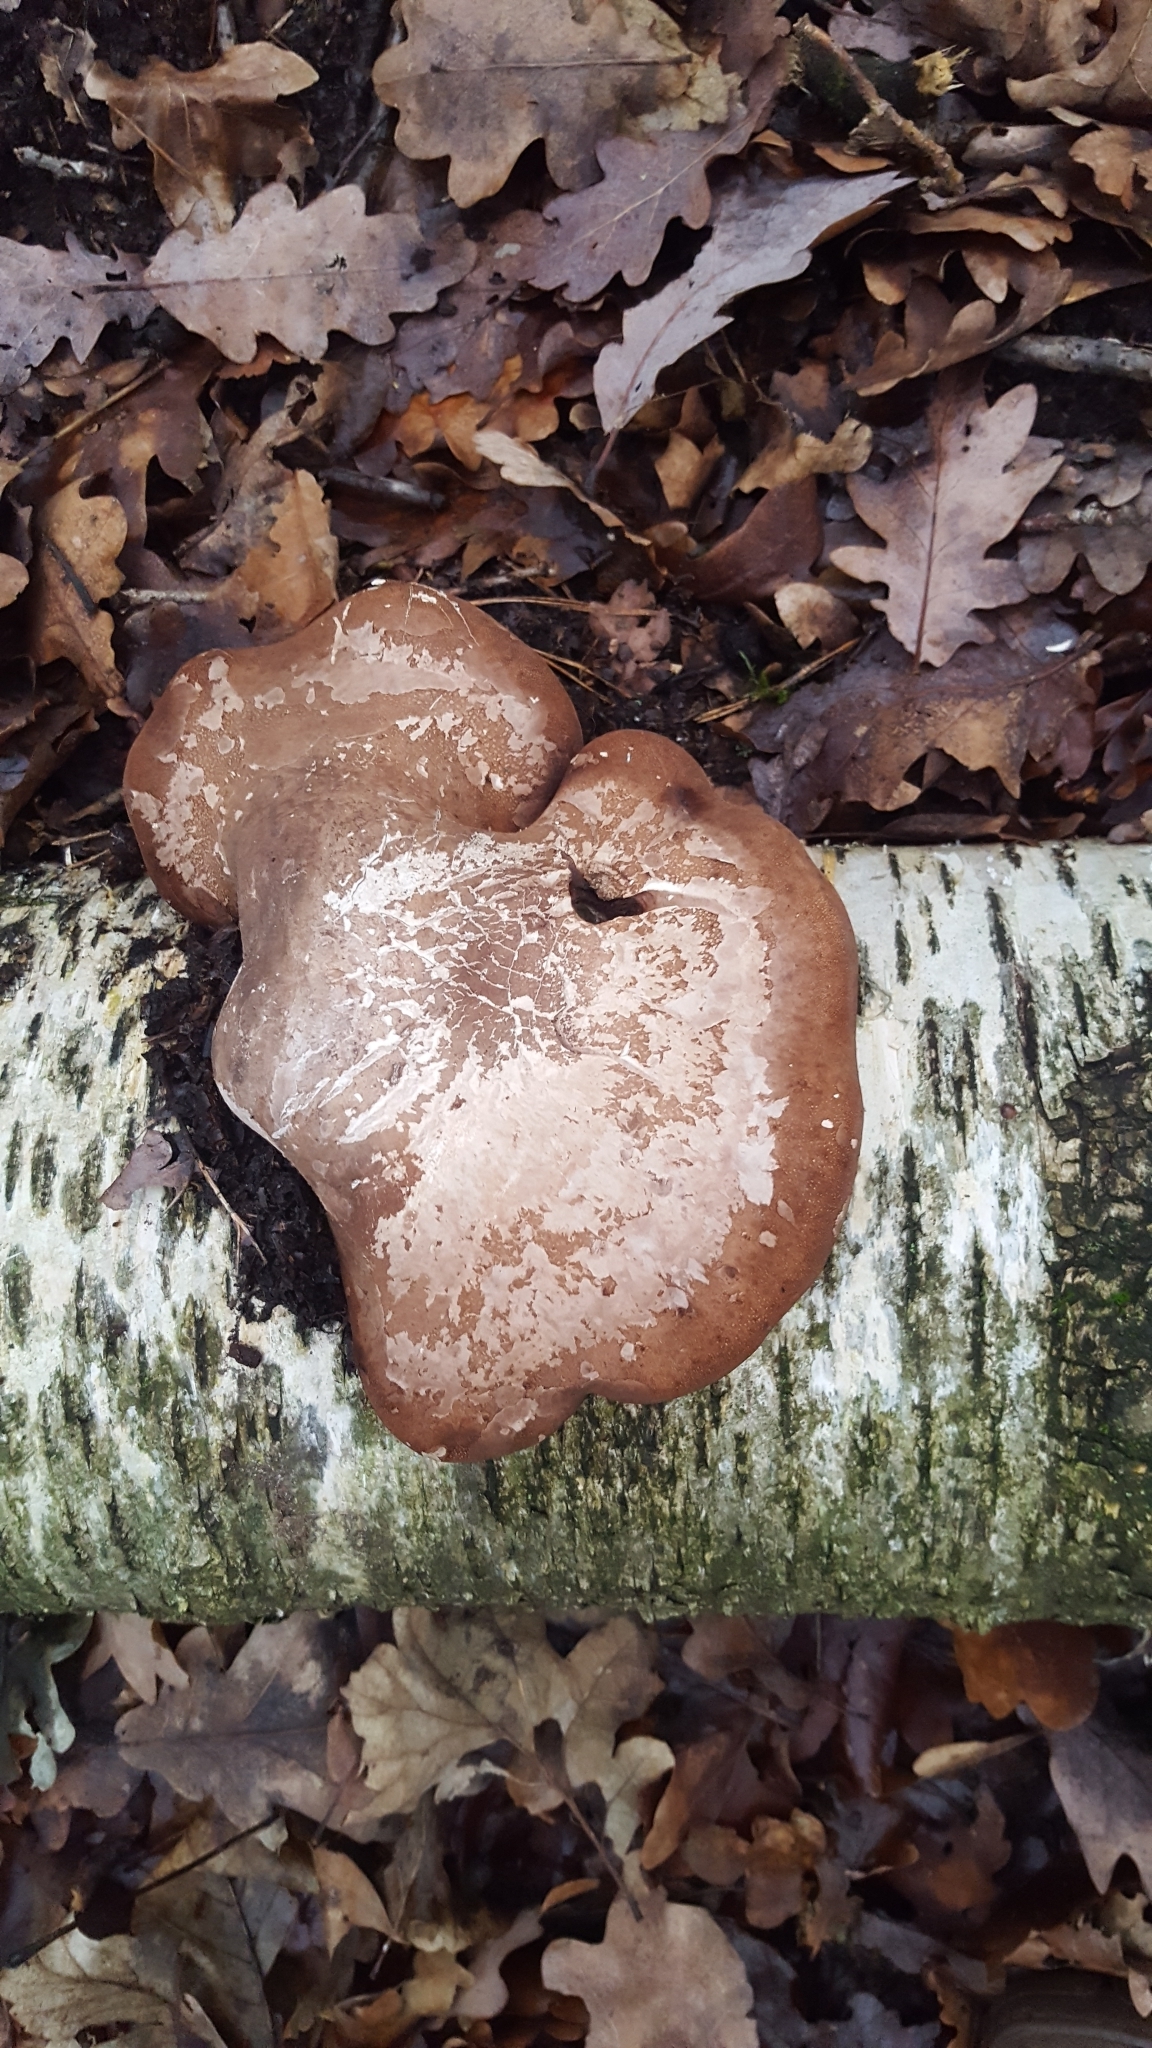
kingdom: Fungi
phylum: Basidiomycota
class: Agaricomycetes
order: Polyporales
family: Fomitopsidaceae
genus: Fomitopsis
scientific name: Fomitopsis betulina
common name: Birch polypore
